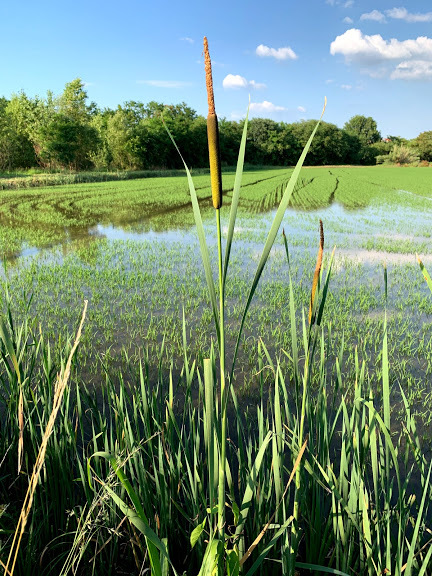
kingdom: Plantae
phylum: Tracheophyta
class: Liliopsida
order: Poales
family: Typhaceae
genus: Typha
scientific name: Typha latifolia
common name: Broadleaf cattail
